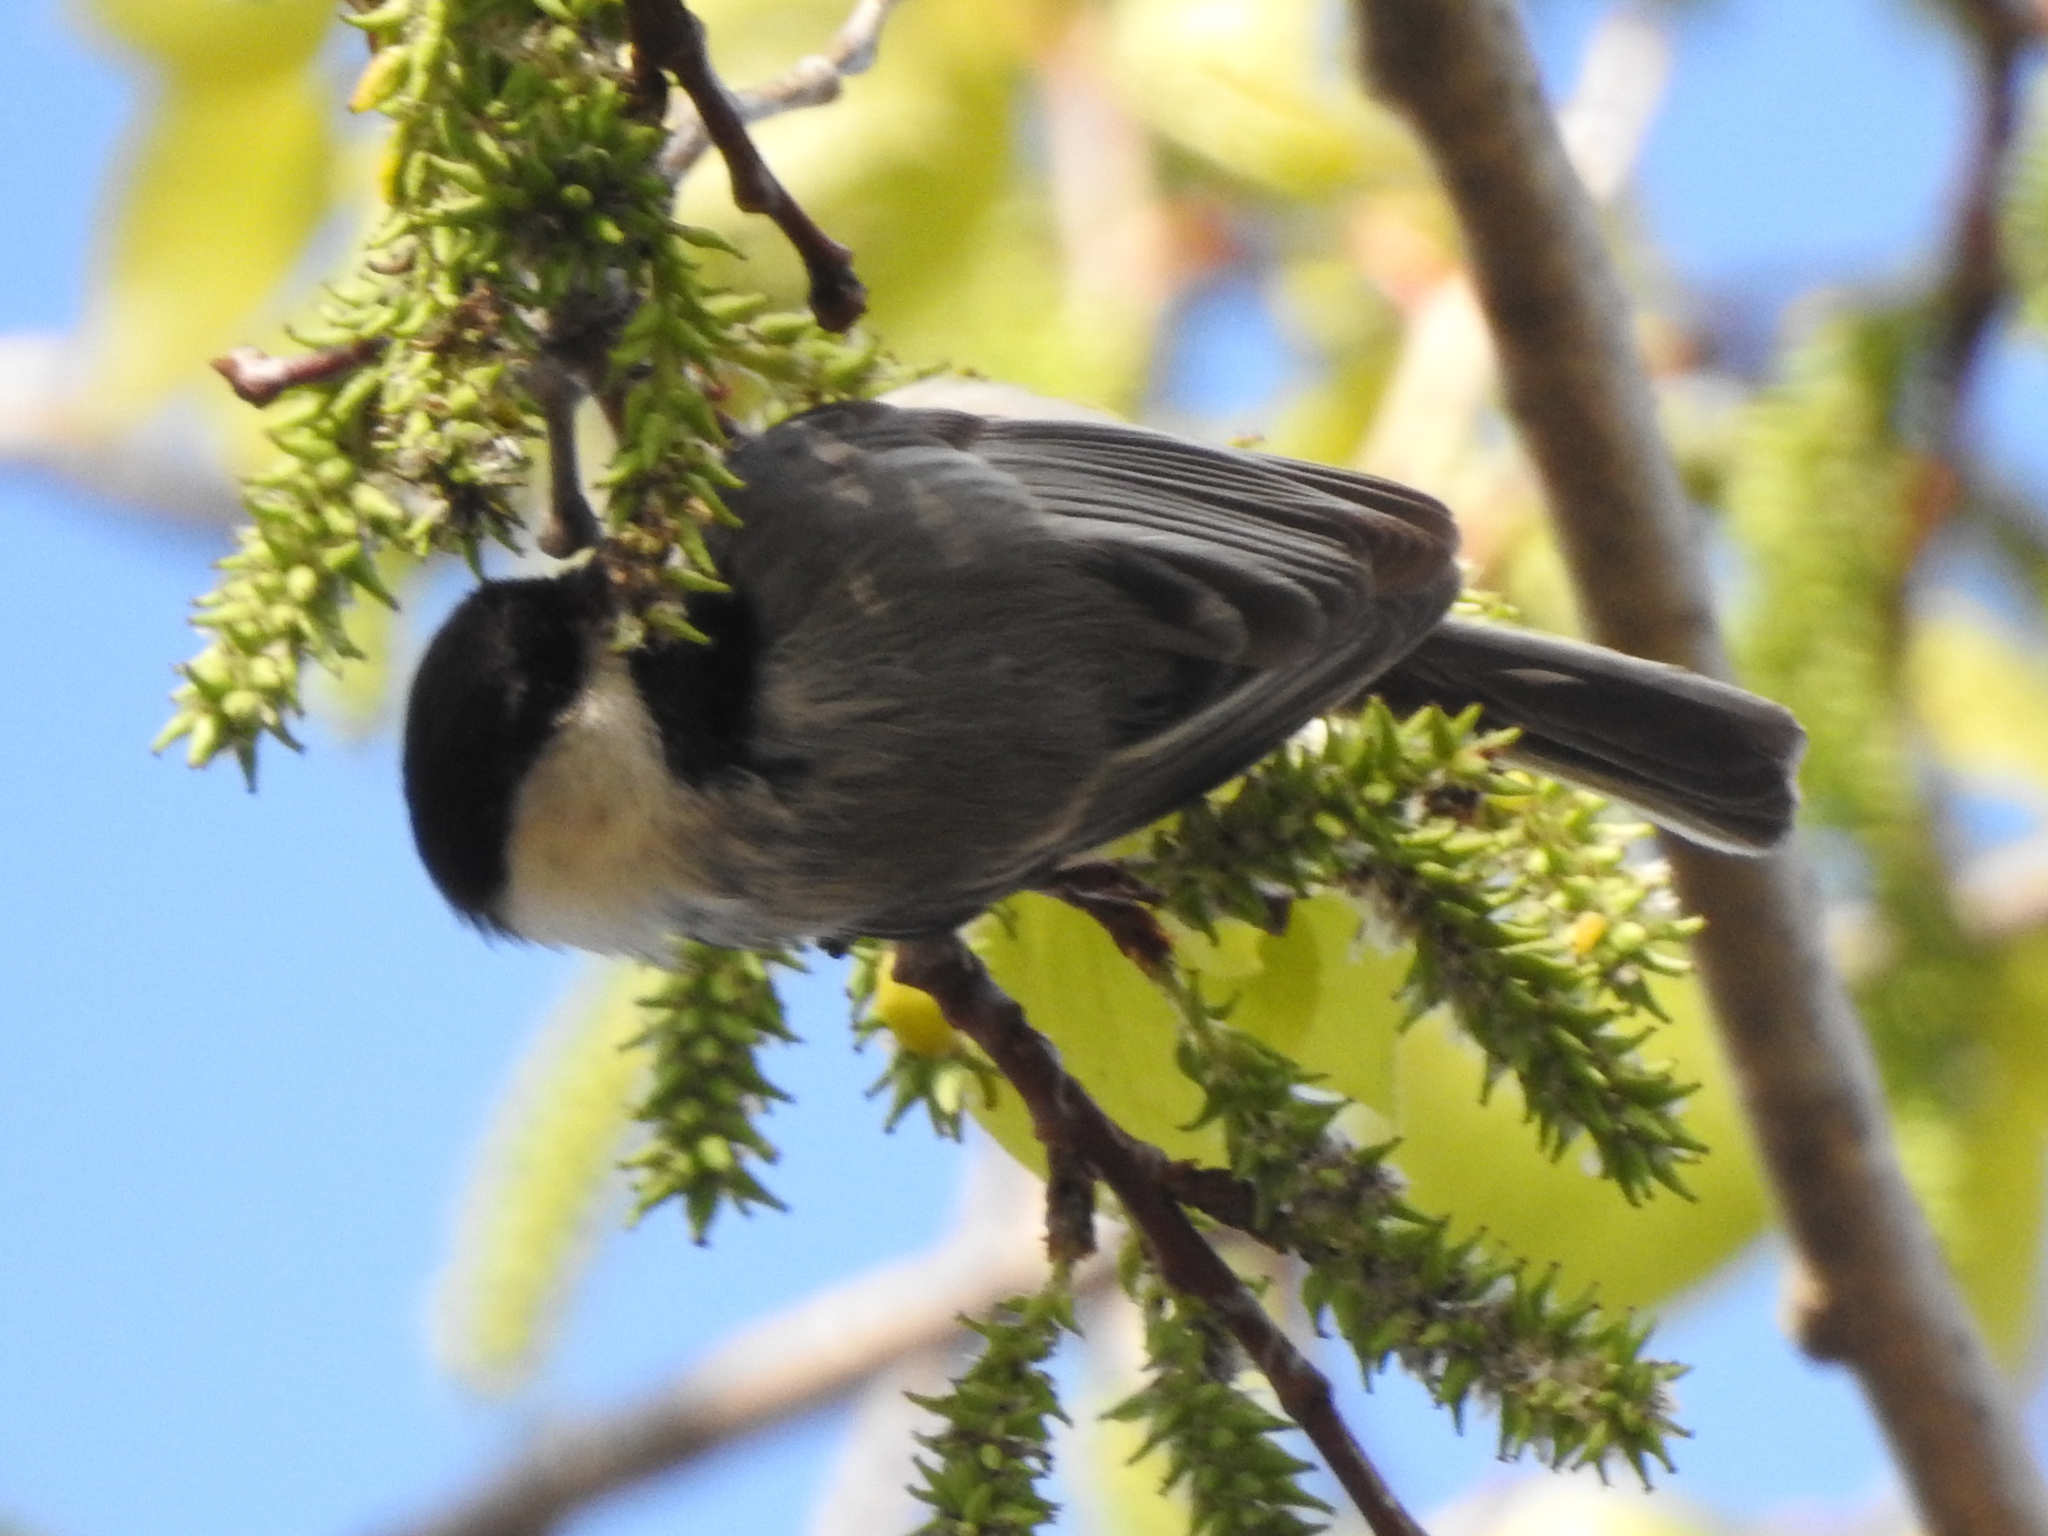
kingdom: Animalia
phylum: Chordata
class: Aves
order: Passeriformes
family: Paridae
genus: Poecile
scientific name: Poecile atricapillus
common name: Black-capped chickadee
